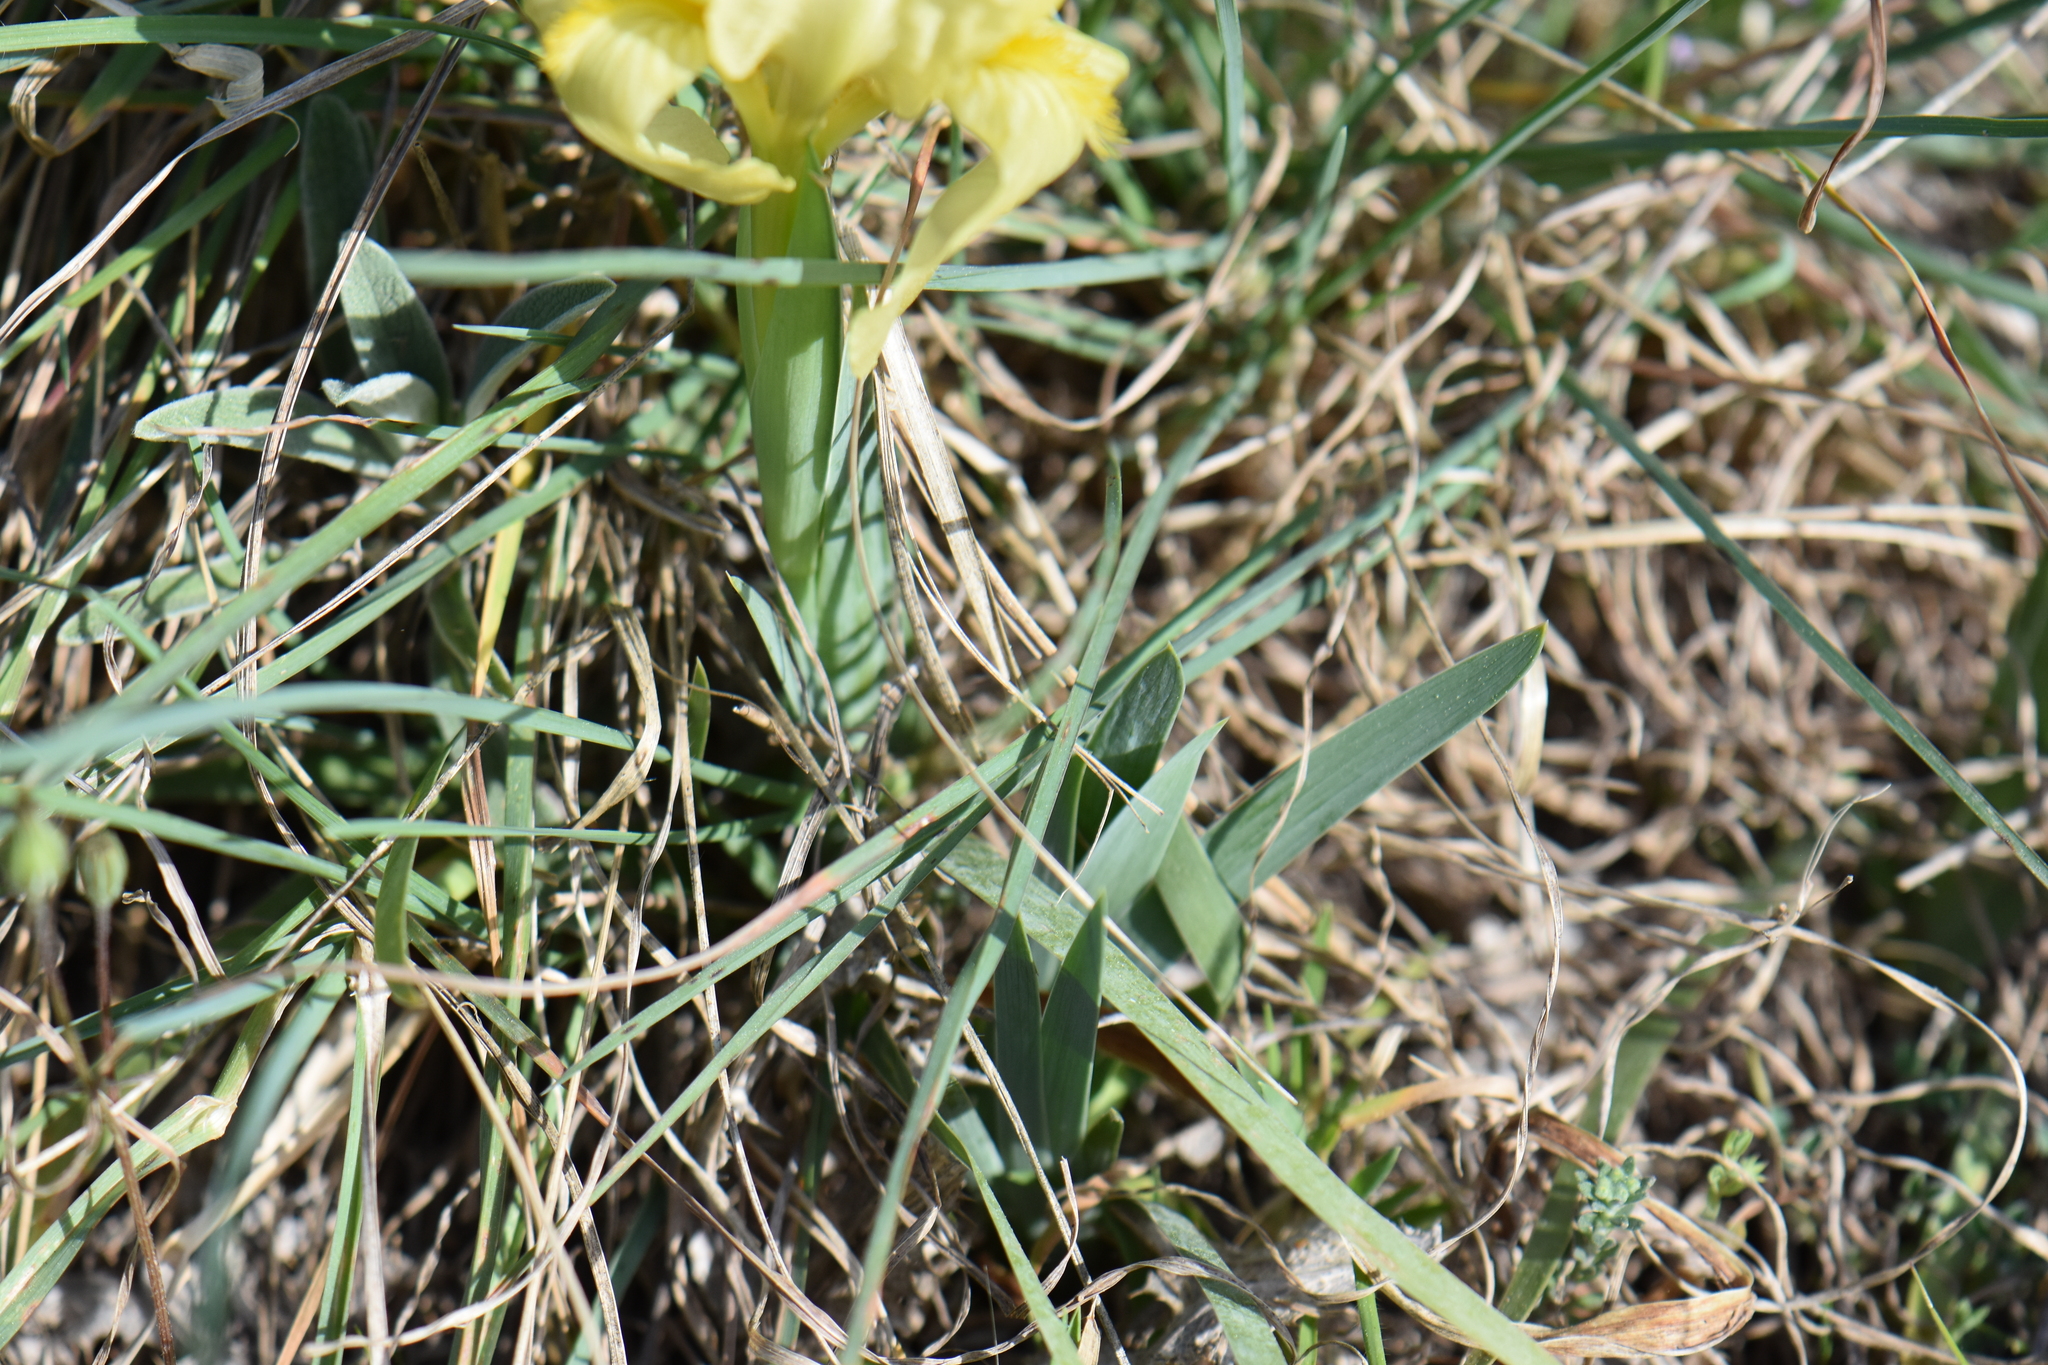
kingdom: Plantae
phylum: Tracheophyta
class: Liliopsida
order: Asparagales
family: Iridaceae
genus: Iris
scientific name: Iris lutescens
